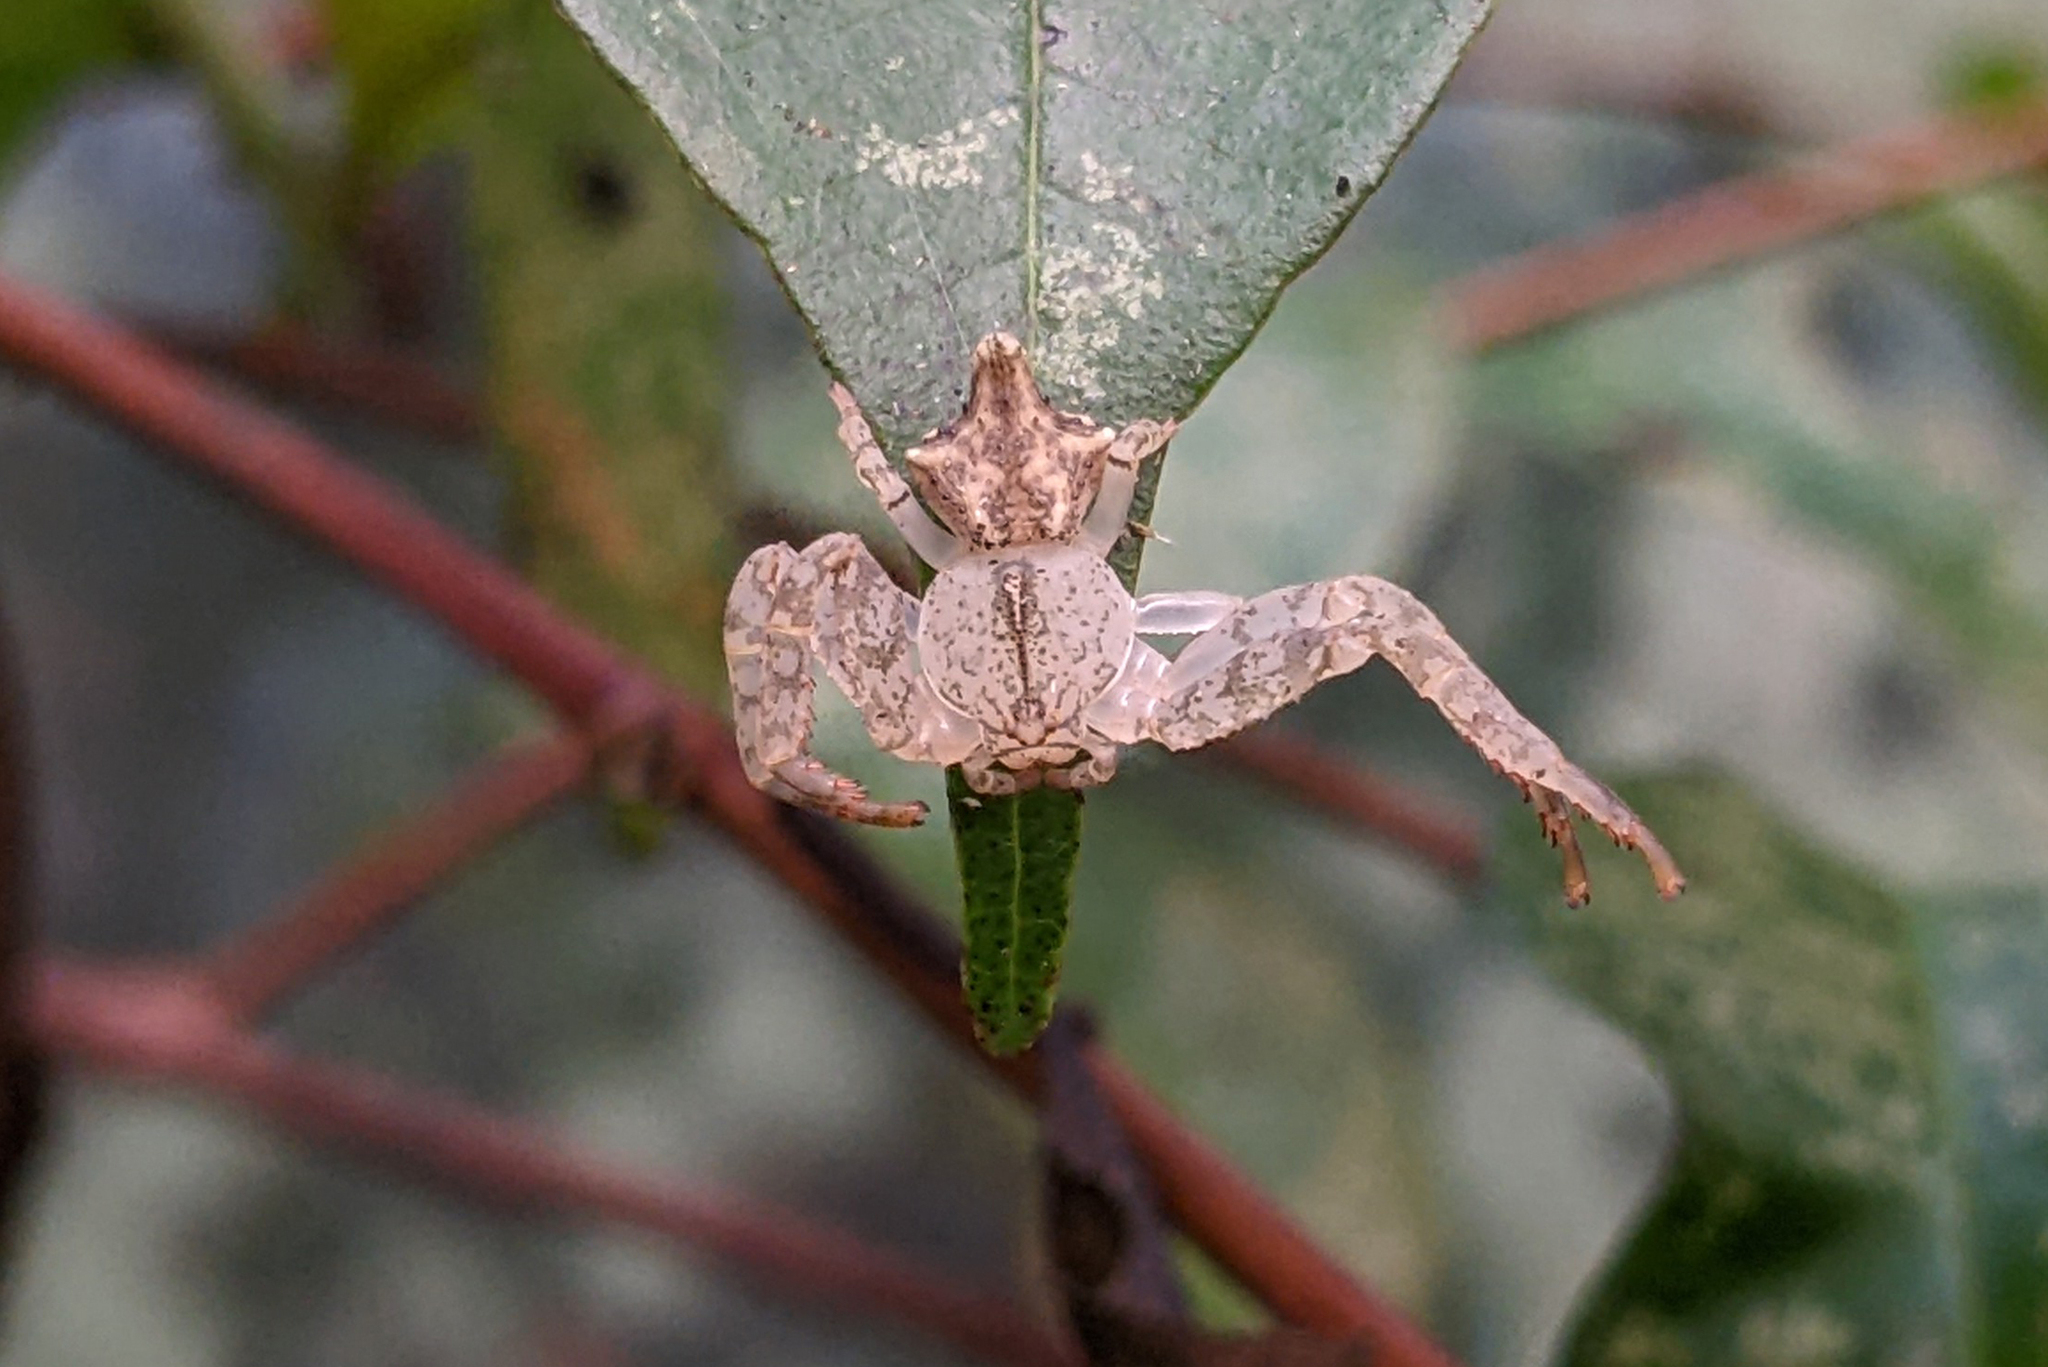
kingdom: Animalia
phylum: Arthropoda
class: Arachnida
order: Araneae
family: Thomisidae
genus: Epicadus
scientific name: Epicadus taczanowskii
